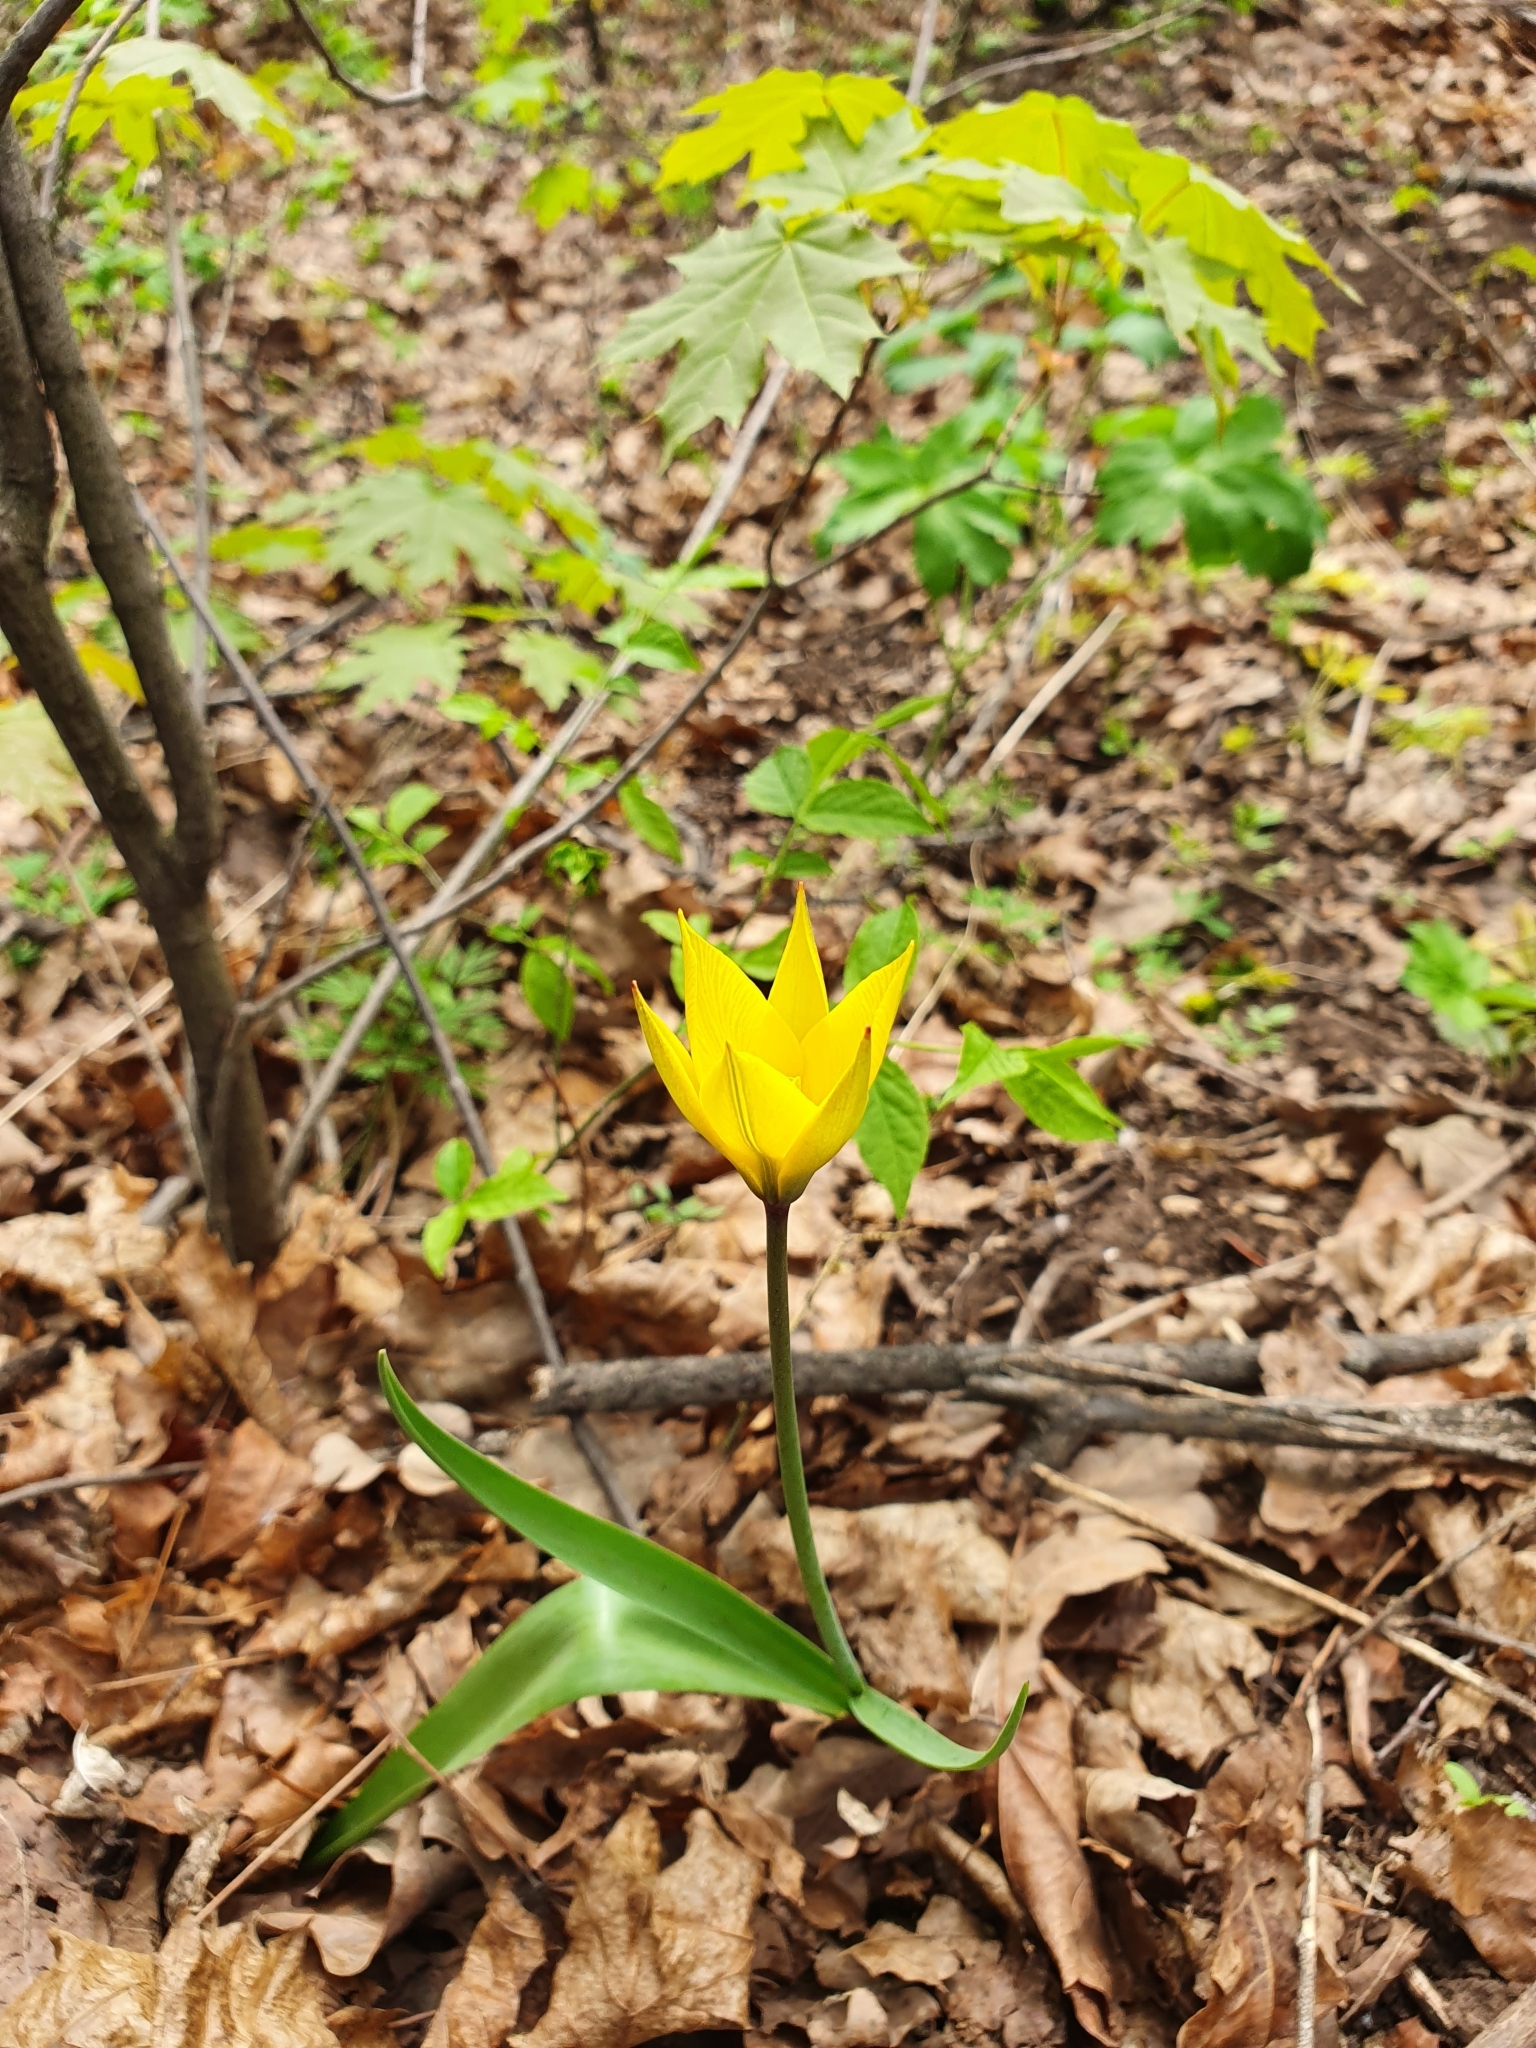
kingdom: Plantae
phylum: Tracheophyta
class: Liliopsida
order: Liliales
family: Liliaceae
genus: Tulipa
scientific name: Tulipa sylvestris
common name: Wild tulip
